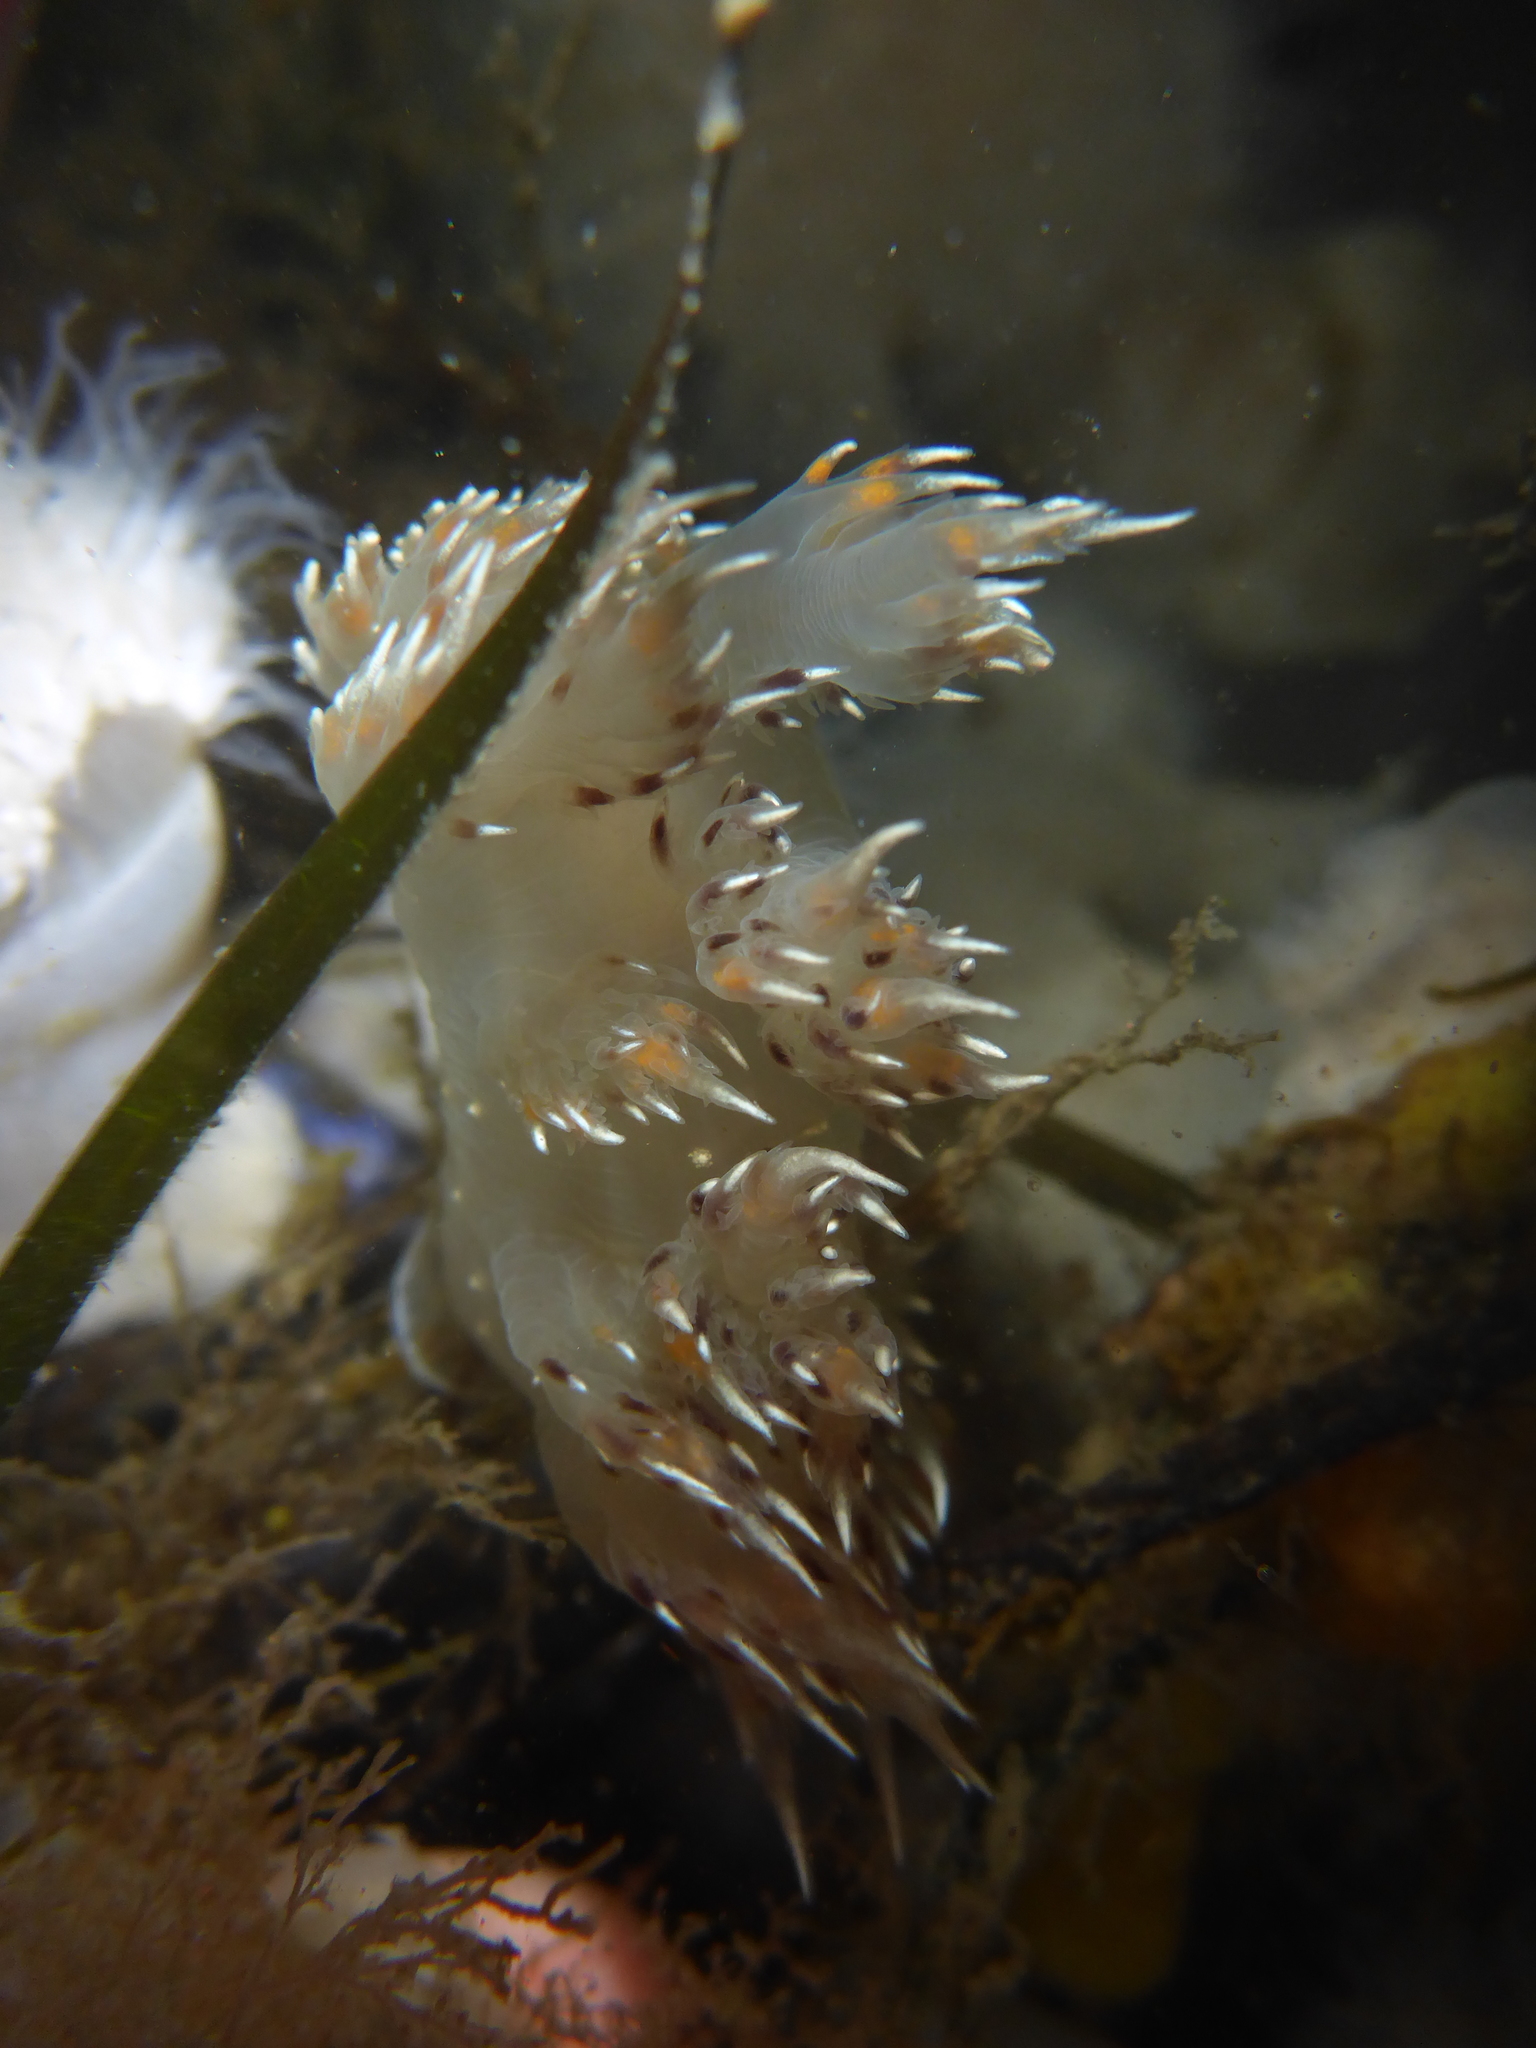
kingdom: Animalia
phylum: Mollusca
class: Gastropoda
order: Nudibranchia
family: Dendronotidae
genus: Dendronotus
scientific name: Dendronotus iris
